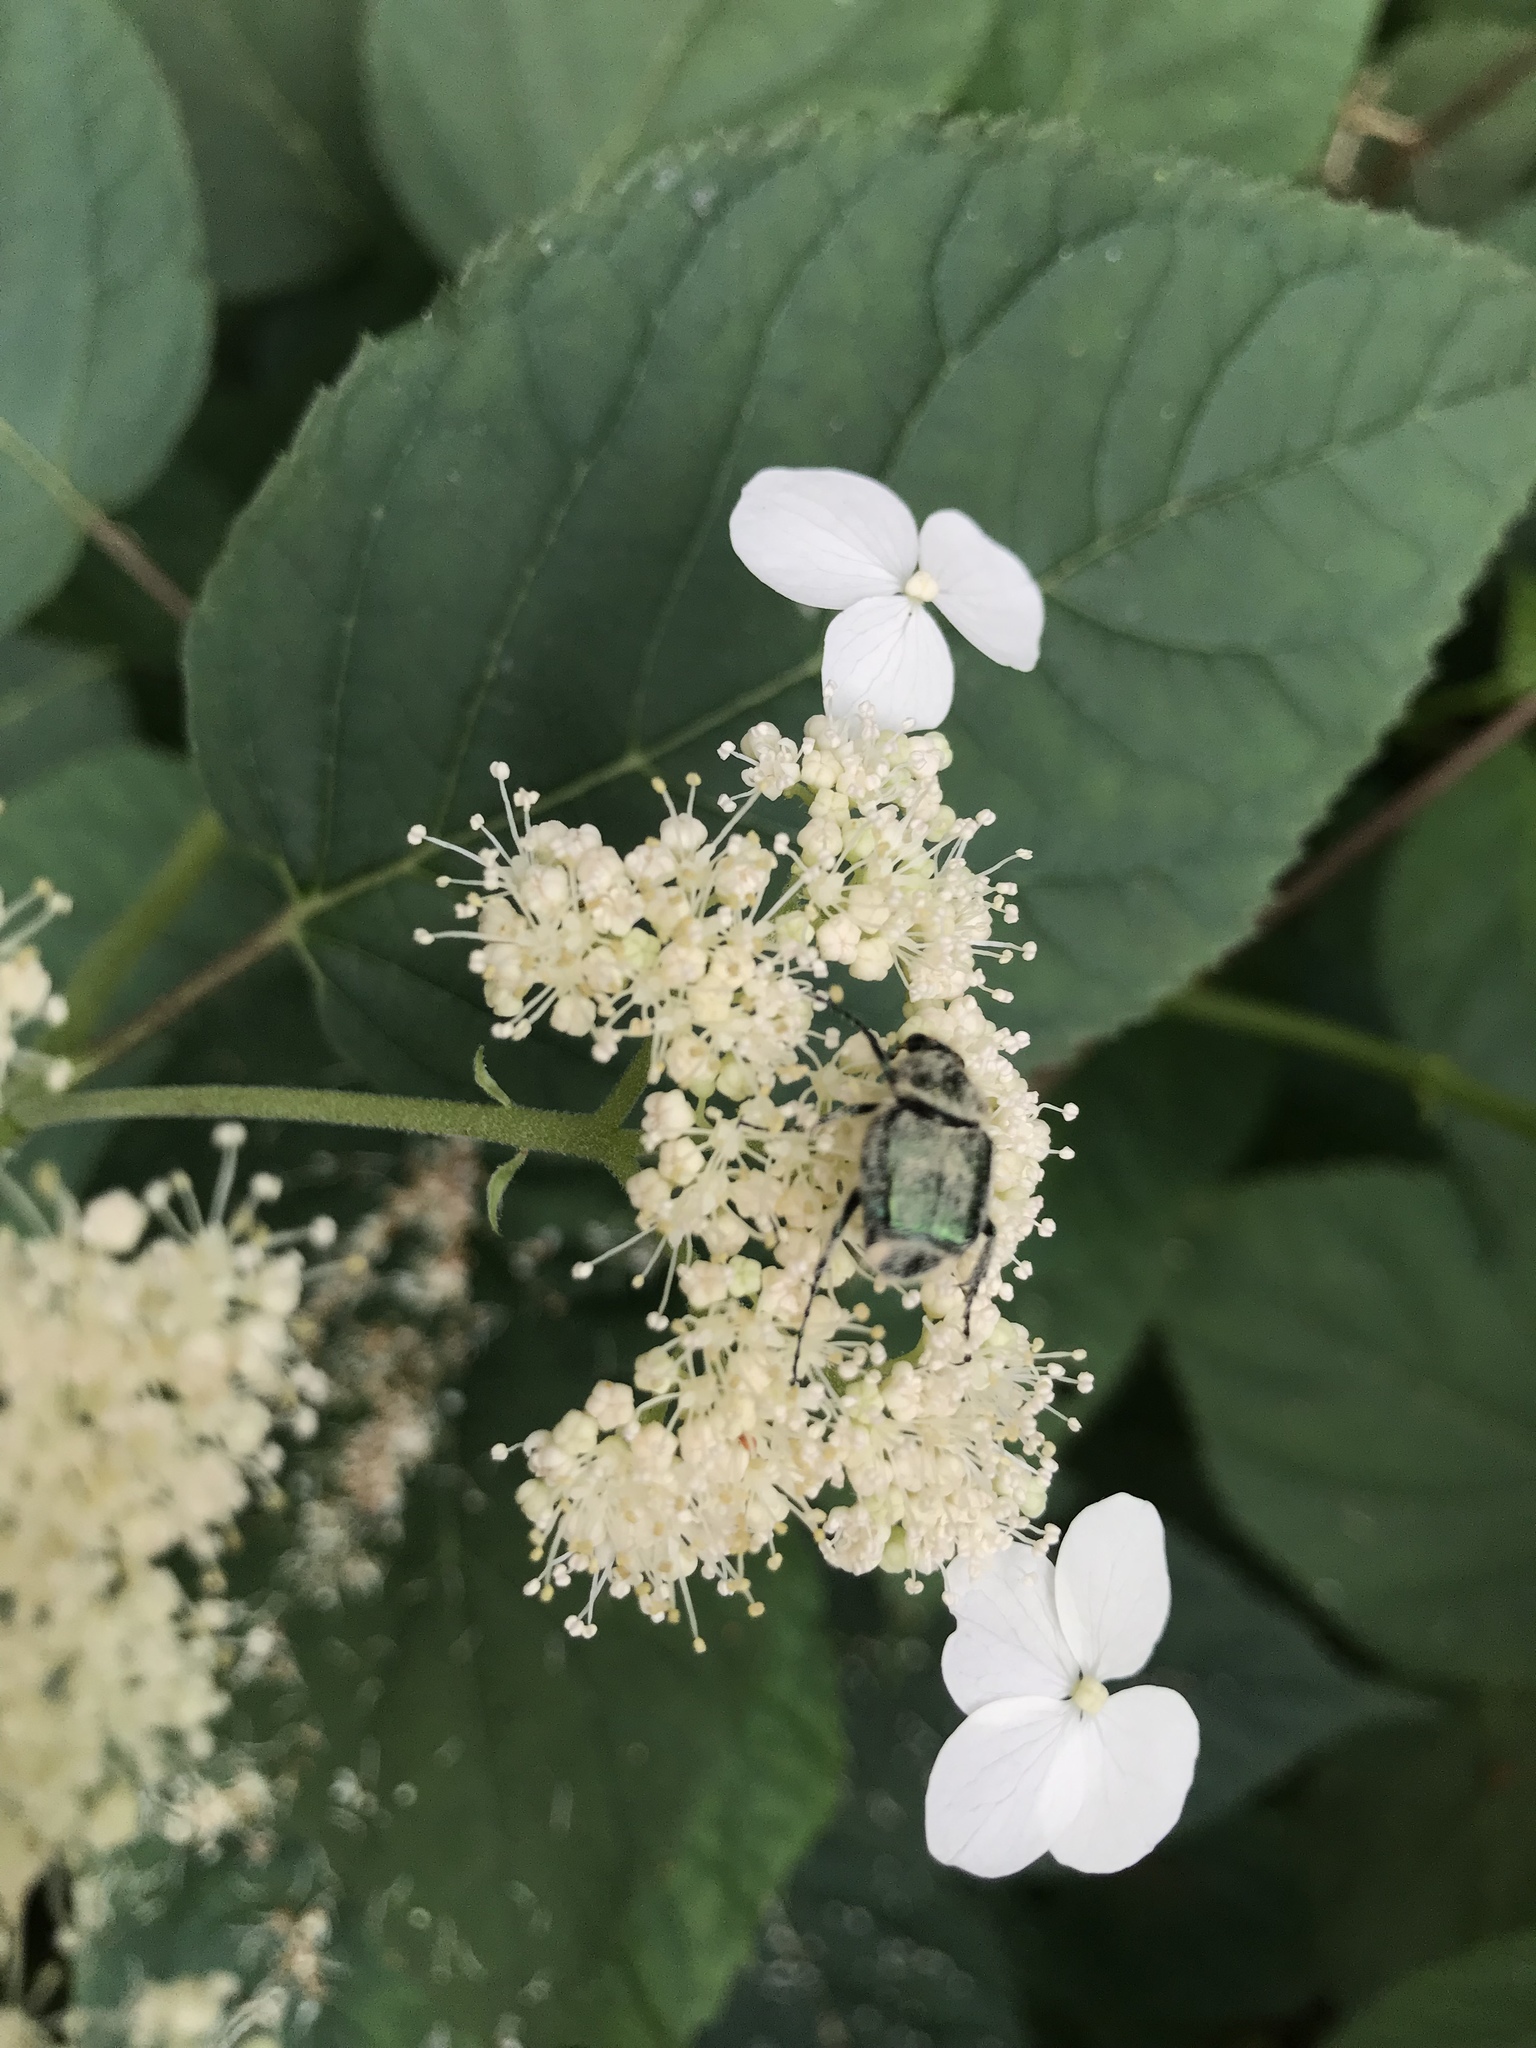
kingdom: Animalia
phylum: Arthropoda
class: Insecta
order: Coleoptera
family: Scarabaeidae
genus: Trichiotinus
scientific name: Trichiotinus lunulatus
